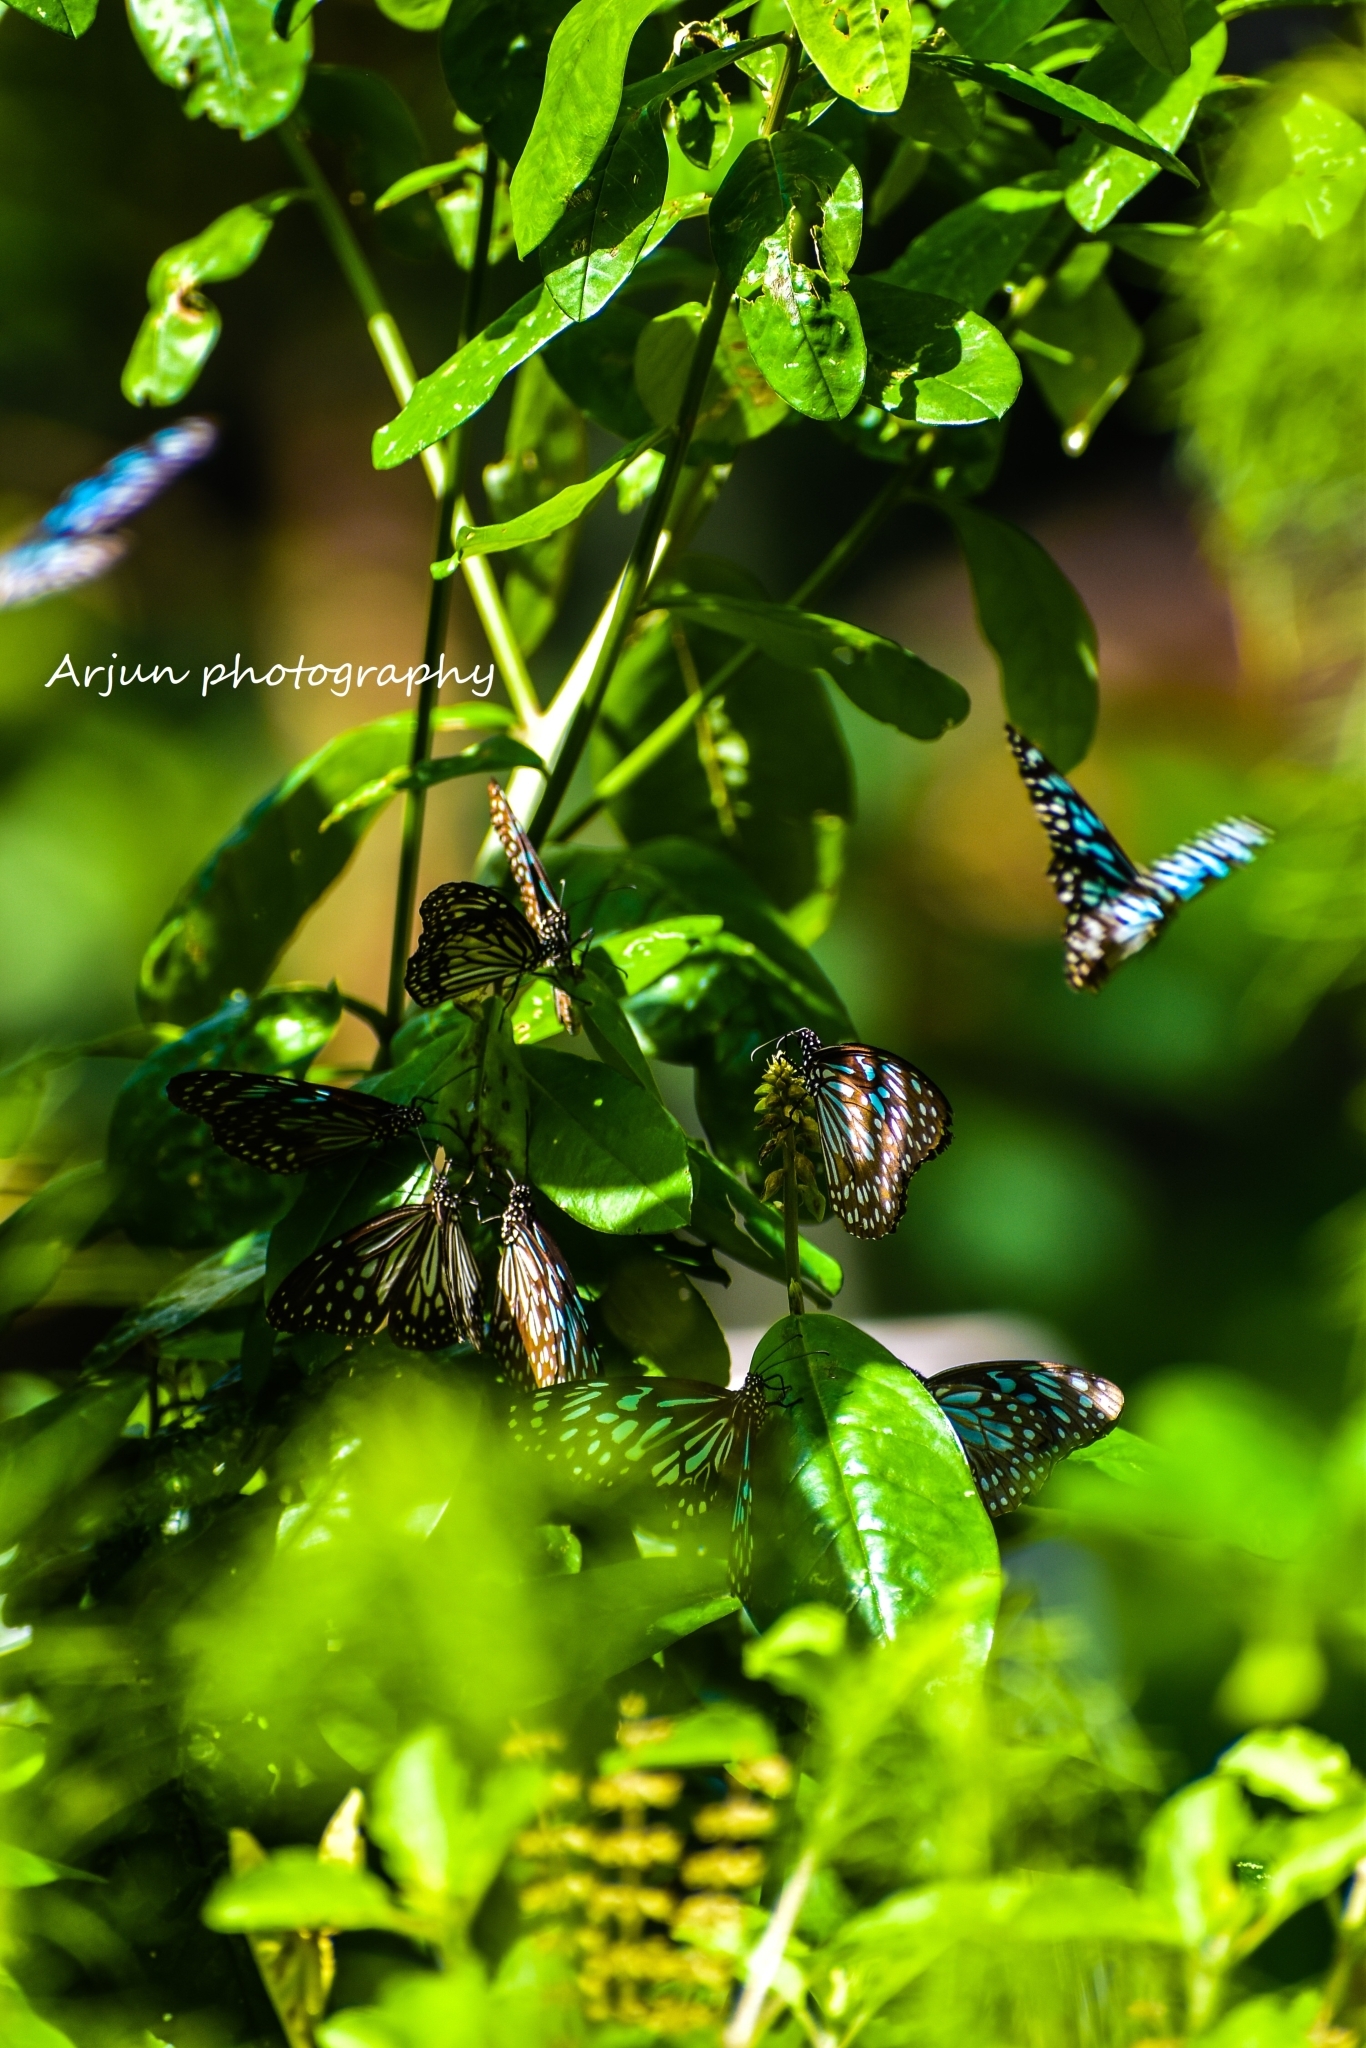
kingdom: Animalia
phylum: Arthropoda
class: Insecta
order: Lepidoptera
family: Nymphalidae
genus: Tirumala
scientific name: Tirumala septentrionis
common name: Dark blue tiger butterfly
